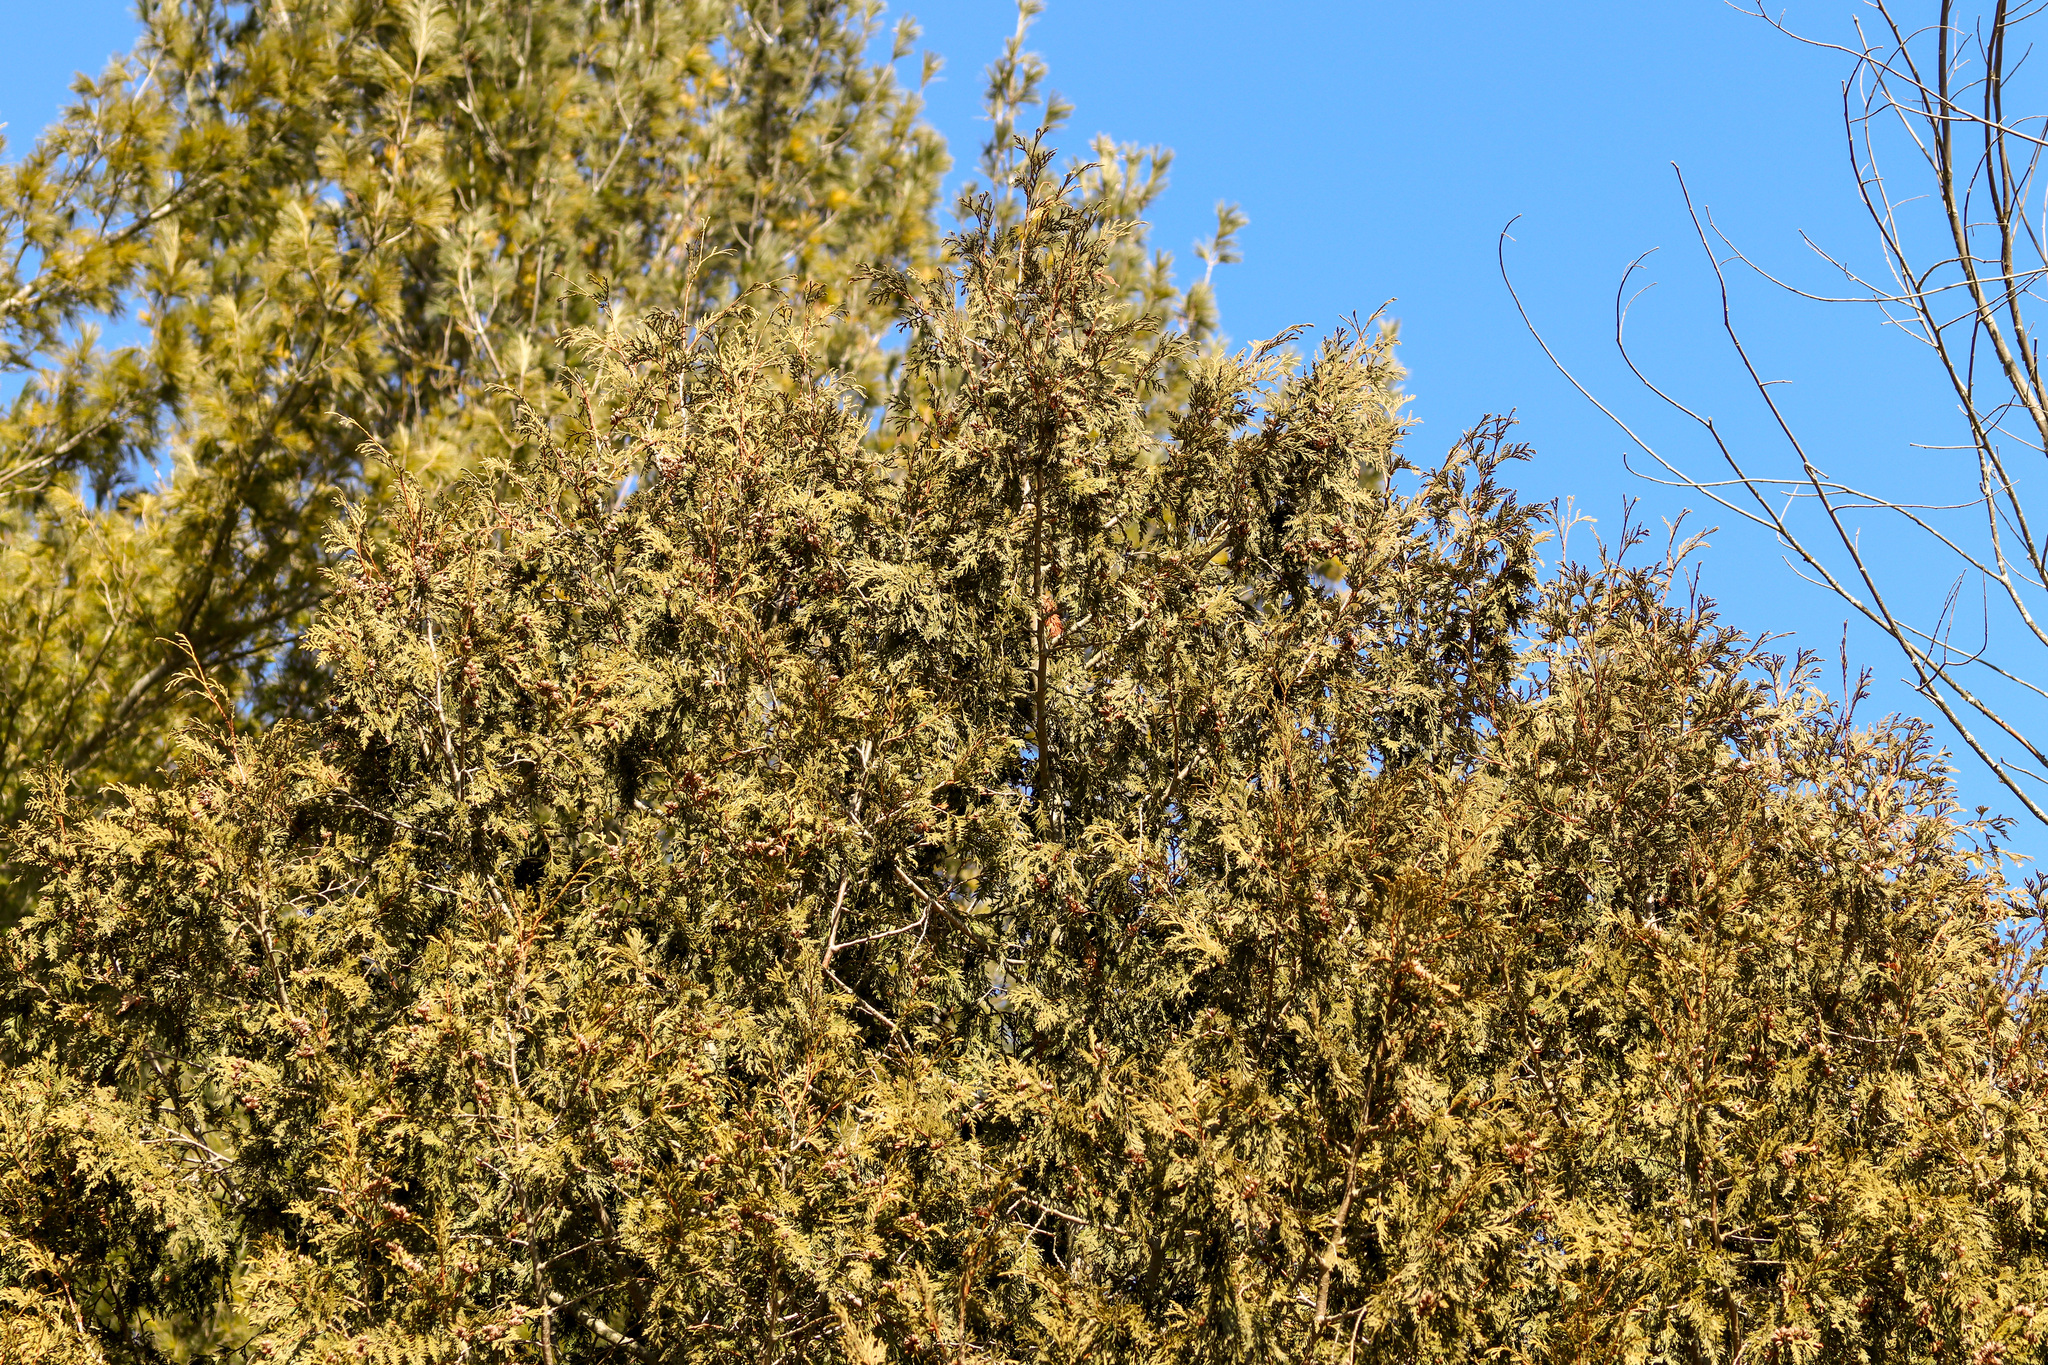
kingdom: Plantae
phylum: Tracheophyta
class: Pinopsida
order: Pinales
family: Cupressaceae
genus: Thuja
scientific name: Thuja occidentalis
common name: Northern white-cedar
